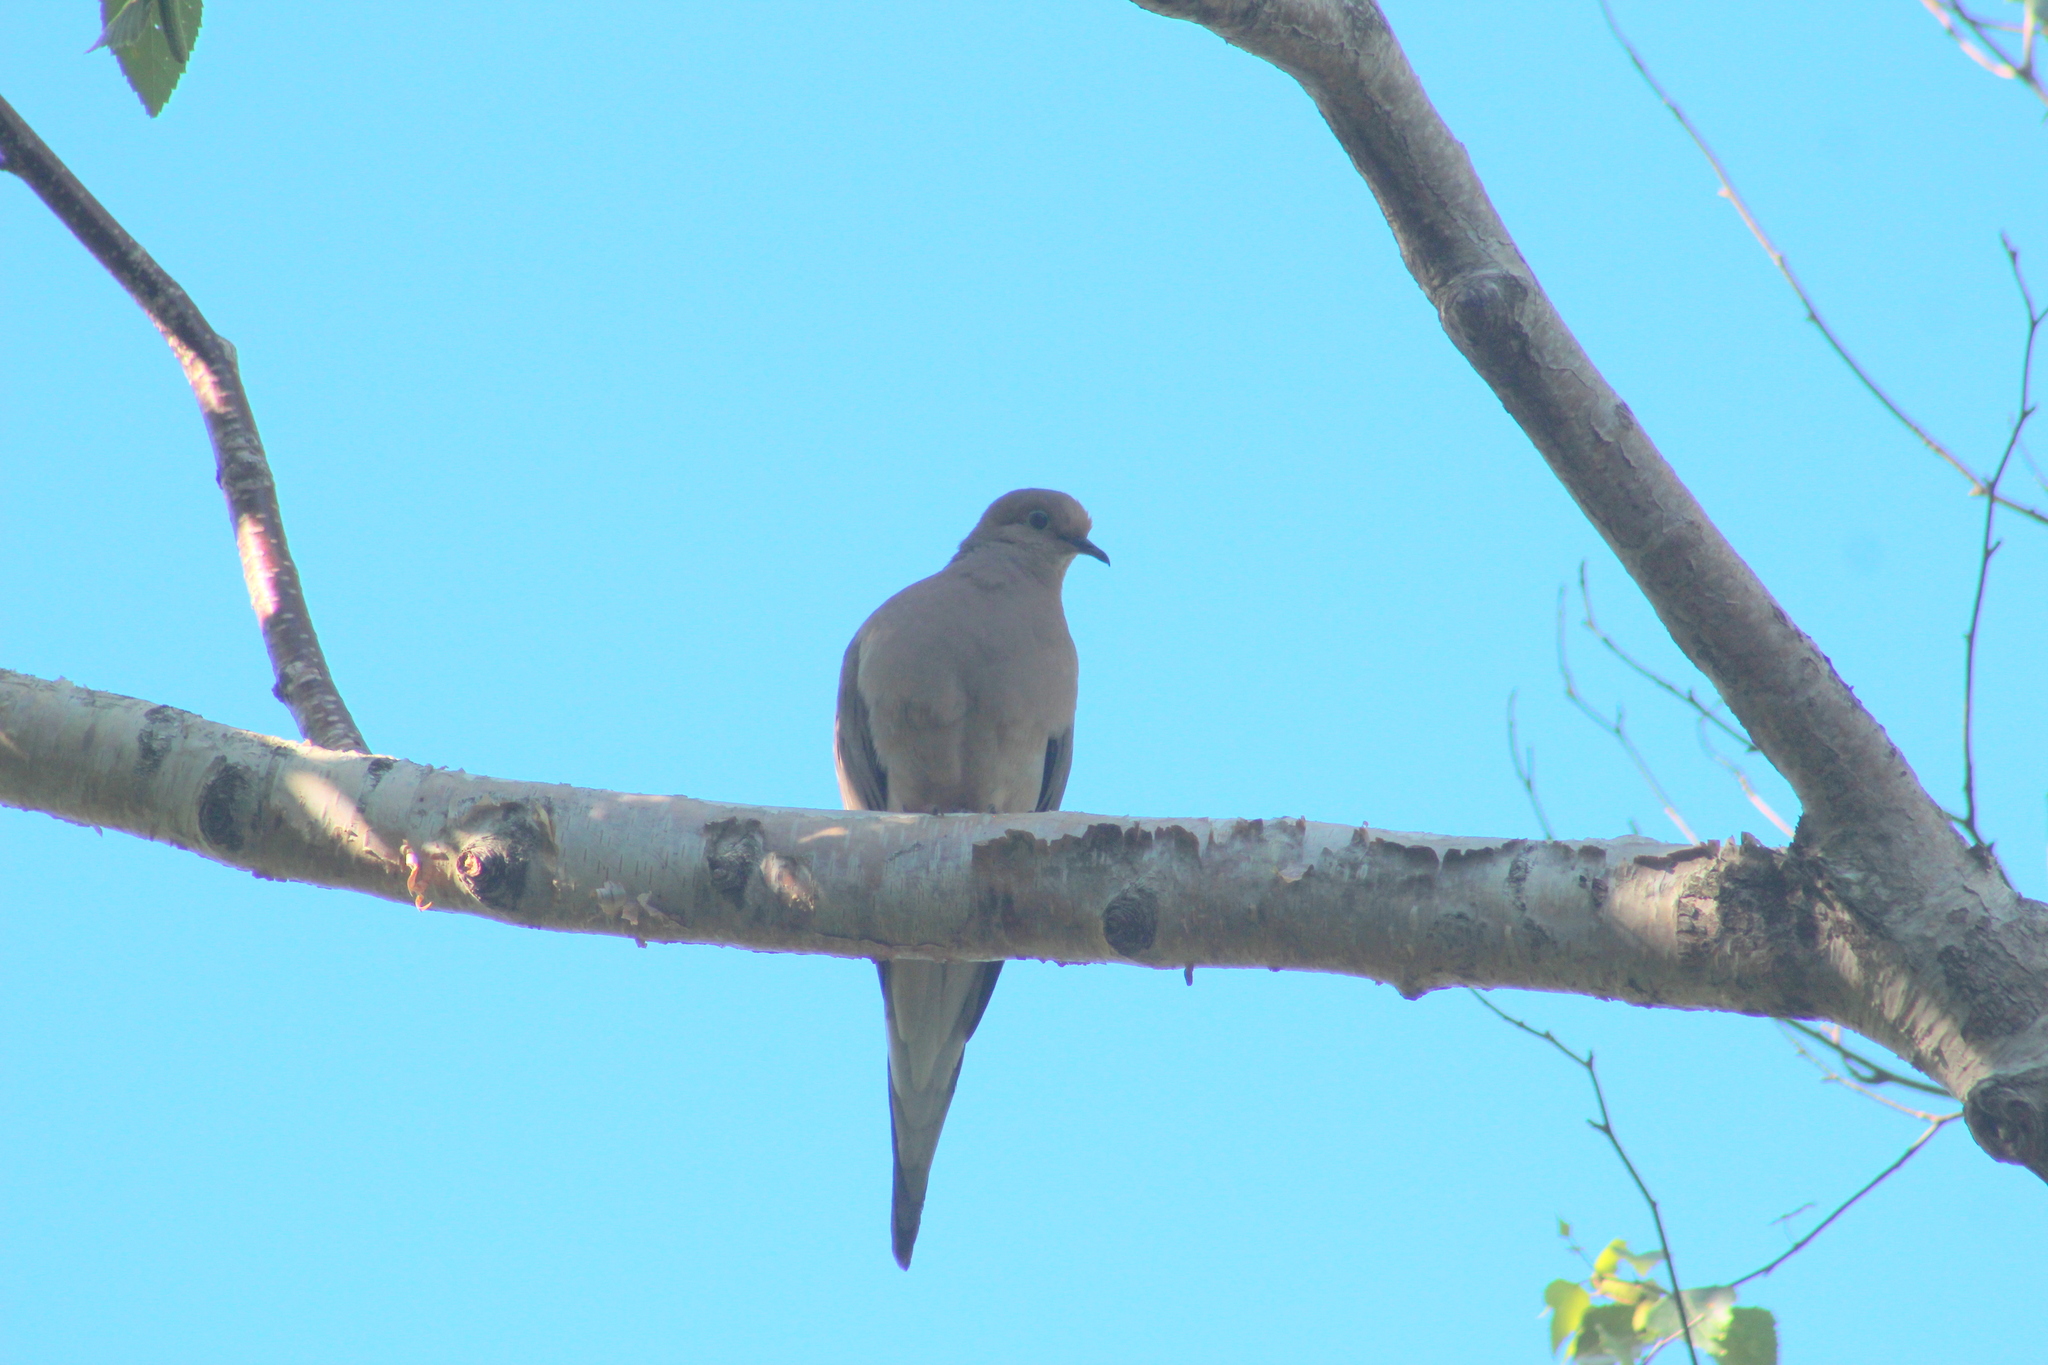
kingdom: Animalia
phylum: Chordata
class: Aves
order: Columbiformes
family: Columbidae
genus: Zenaida
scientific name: Zenaida macroura
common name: Mourning dove
